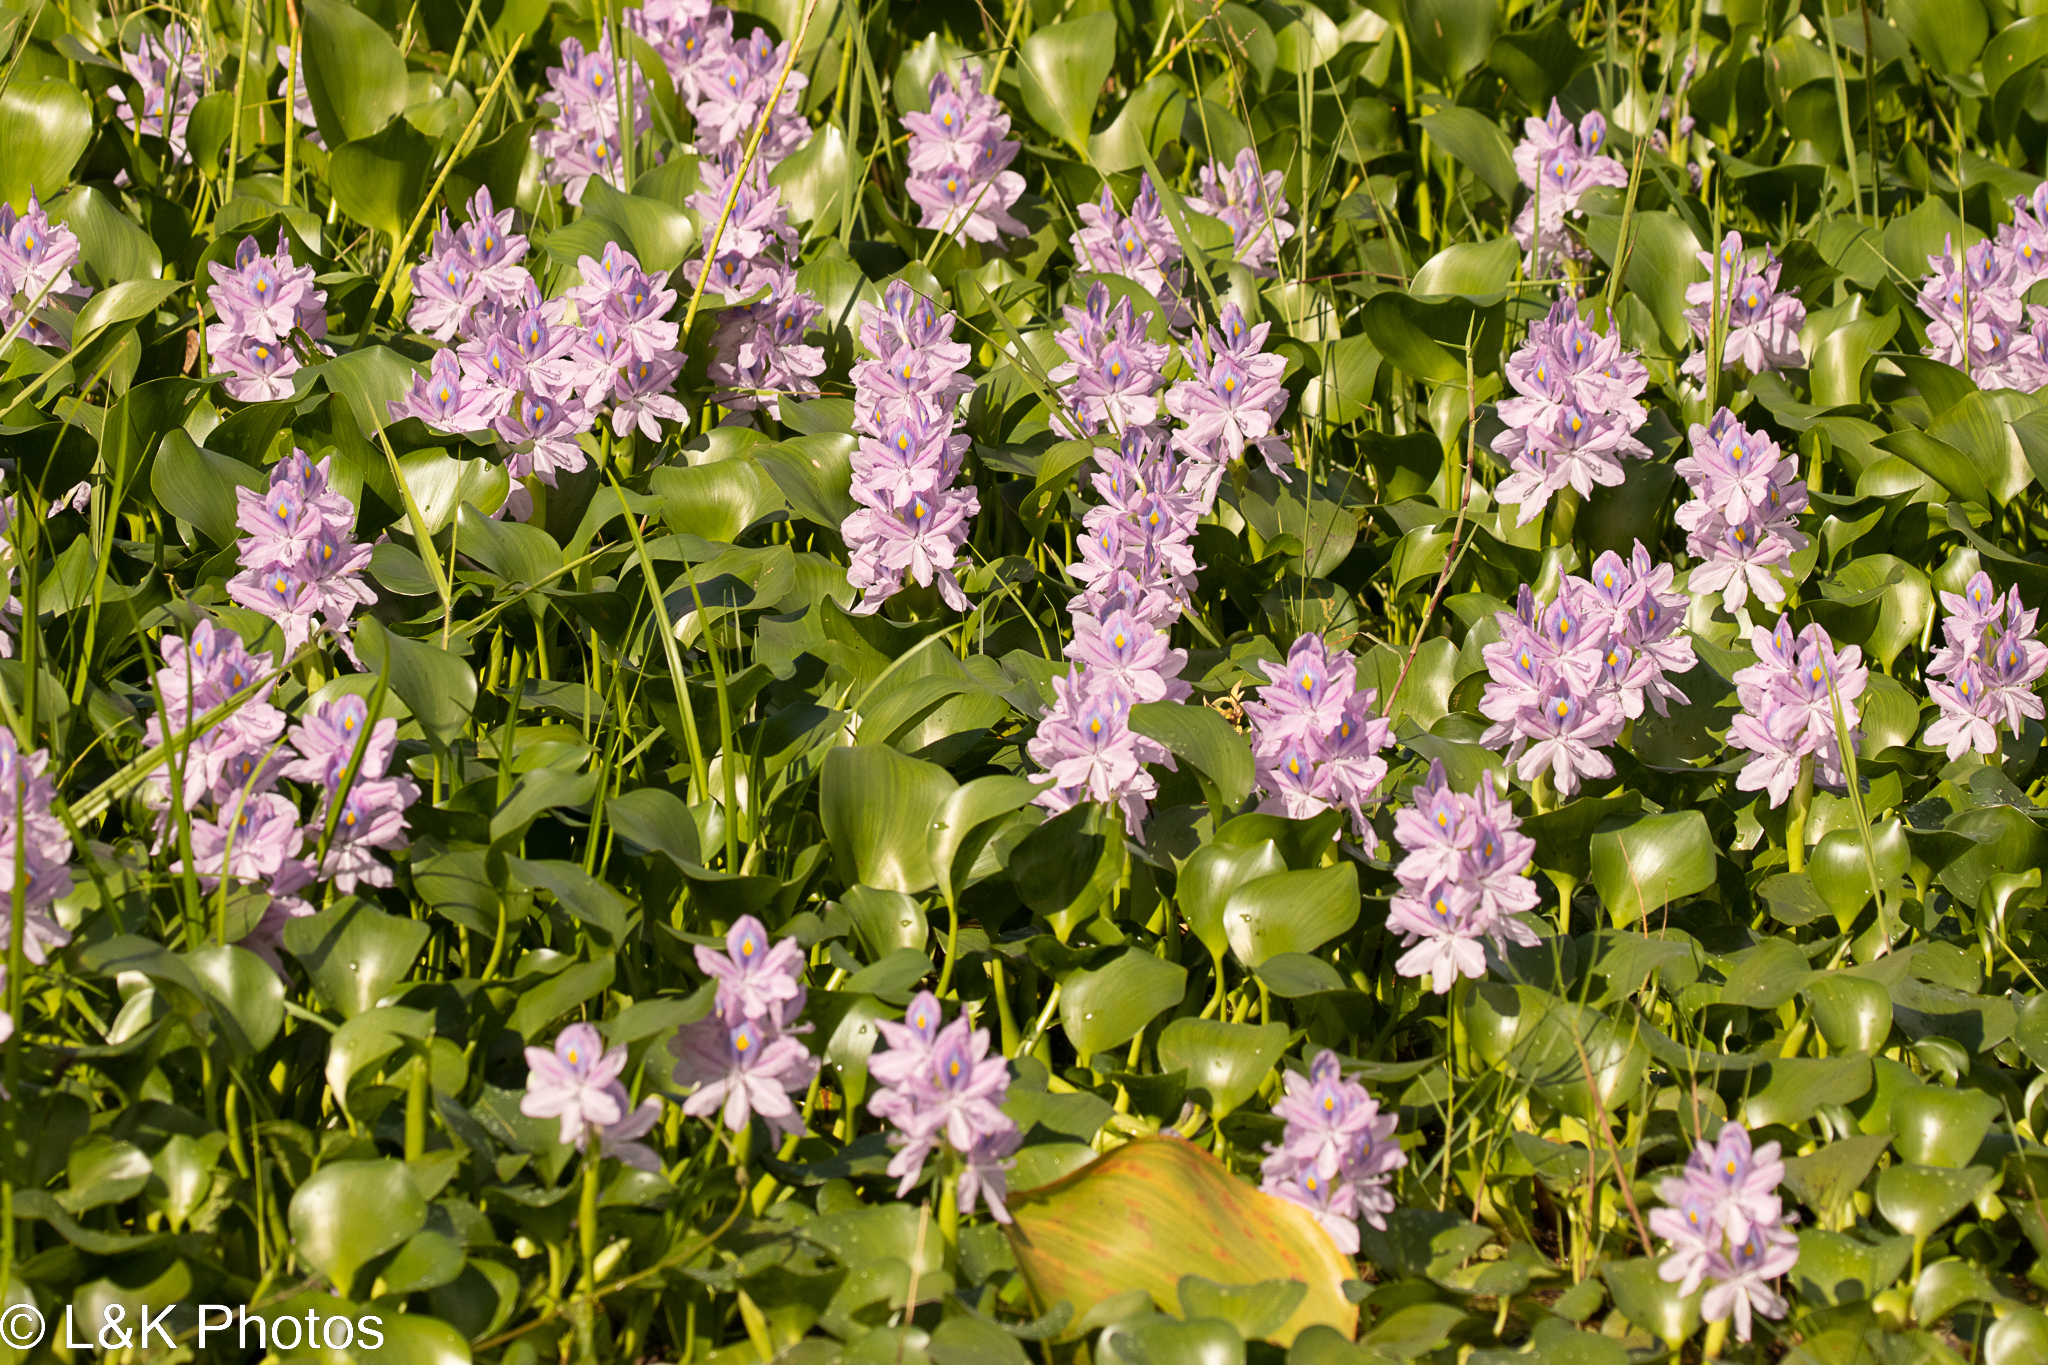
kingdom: Plantae
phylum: Tracheophyta
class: Liliopsida
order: Commelinales
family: Pontederiaceae
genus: Pontederia
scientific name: Pontederia crassipes
